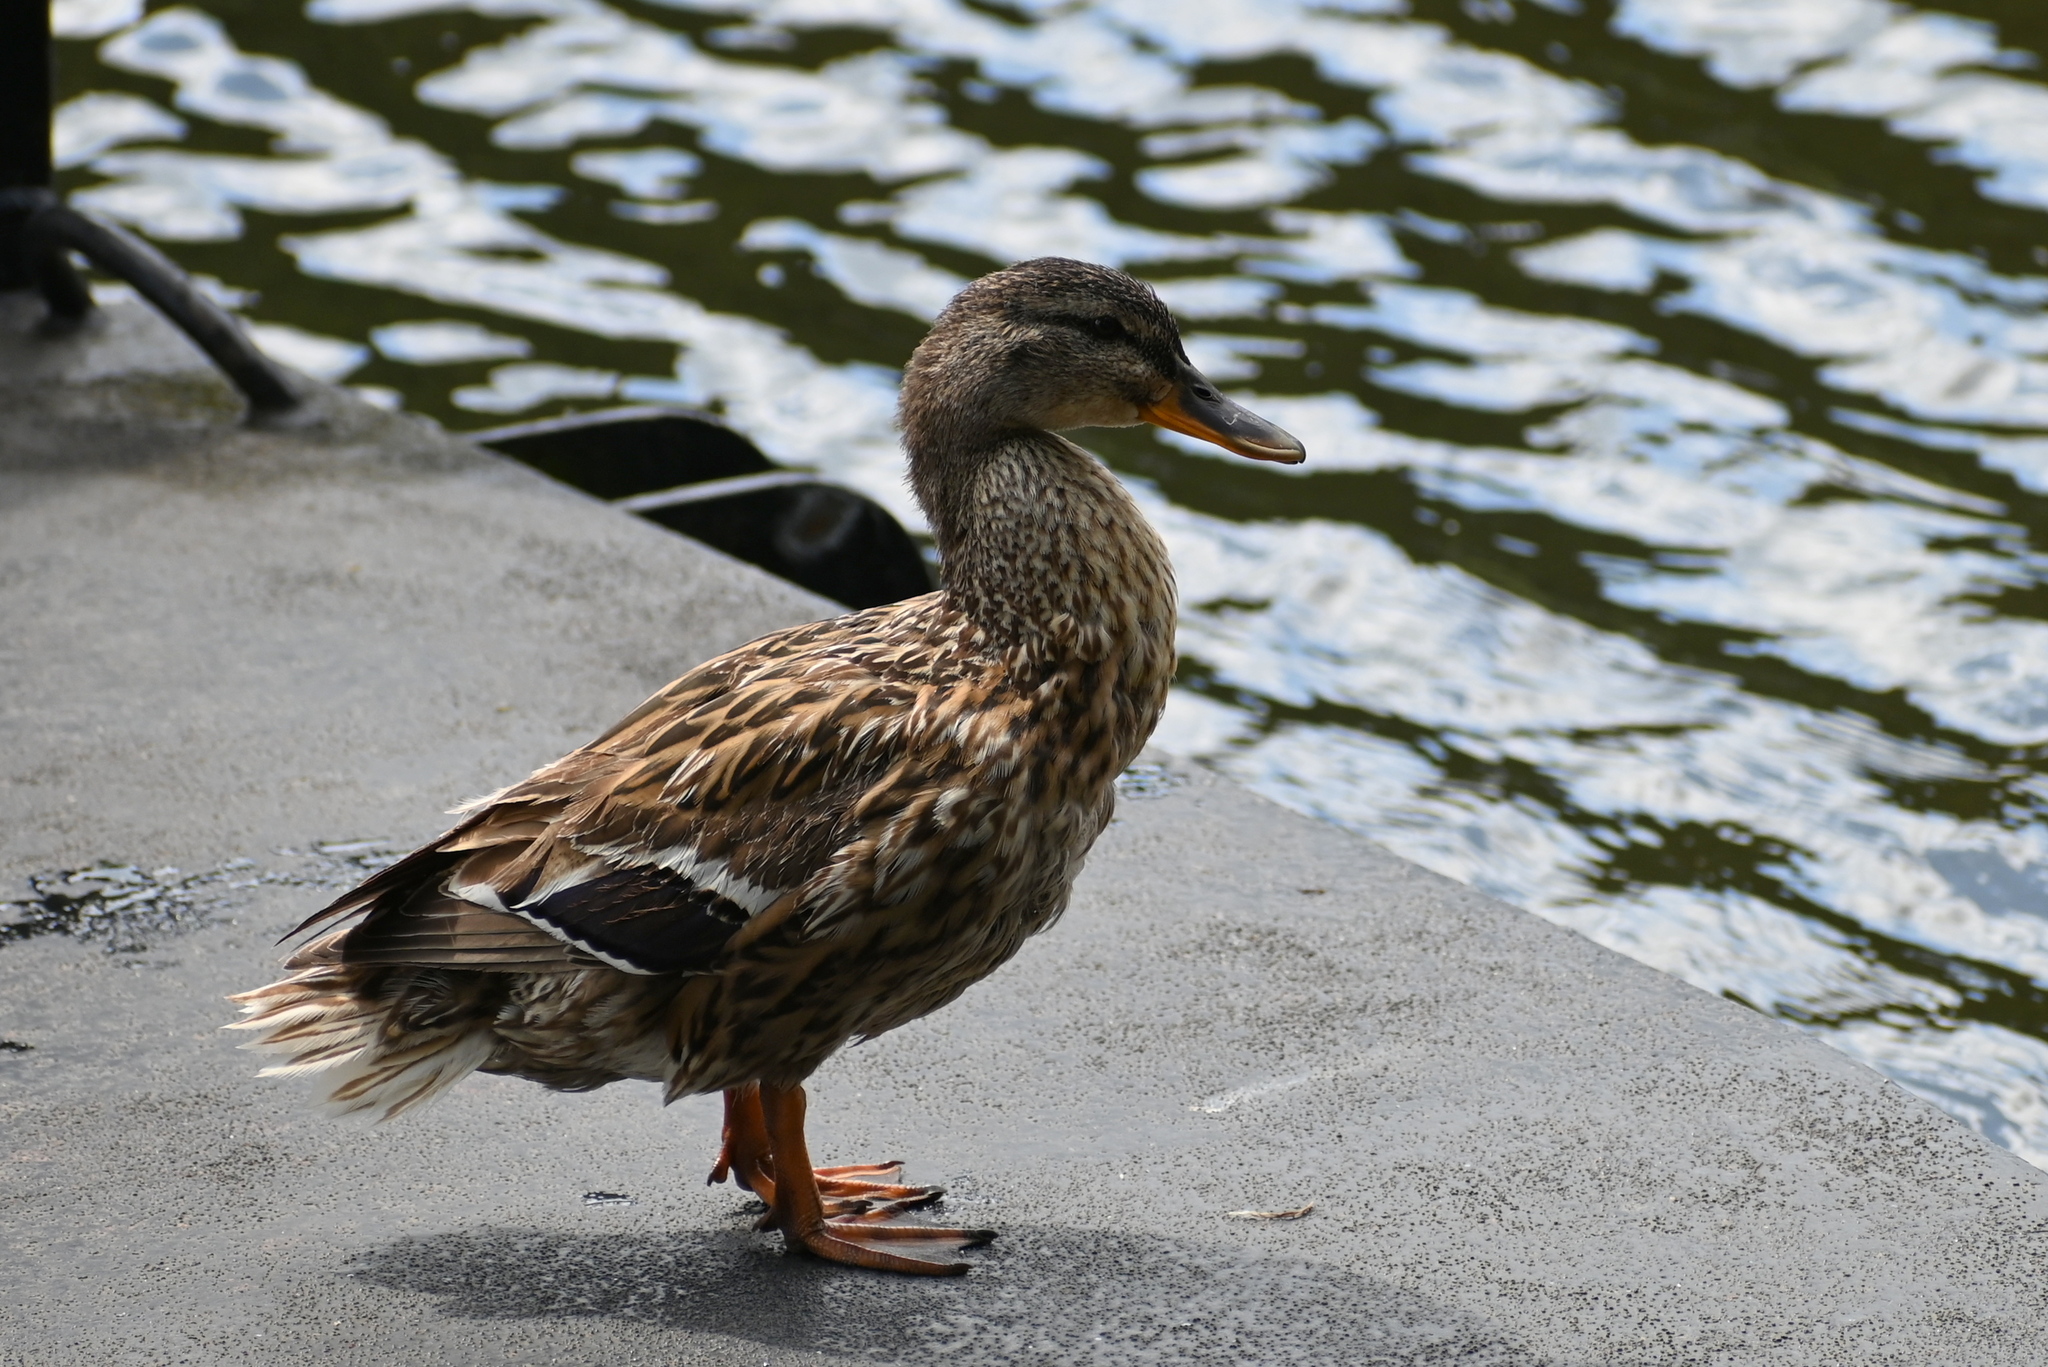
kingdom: Animalia
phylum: Chordata
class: Aves
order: Anseriformes
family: Anatidae
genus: Anas
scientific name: Anas platyrhynchos
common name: Mallard
